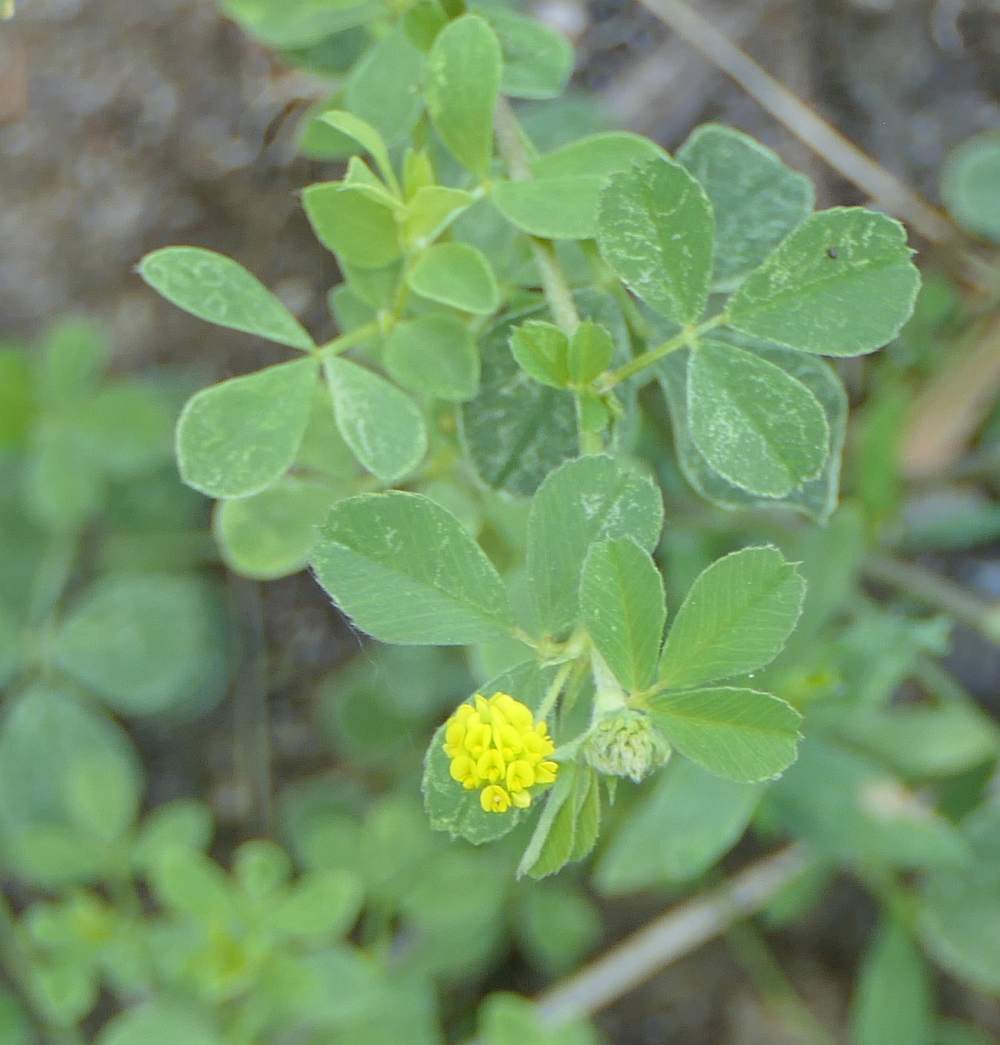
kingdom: Plantae
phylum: Tracheophyta
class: Magnoliopsida
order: Fabales
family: Fabaceae
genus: Medicago
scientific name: Medicago lupulina
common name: Black medick
